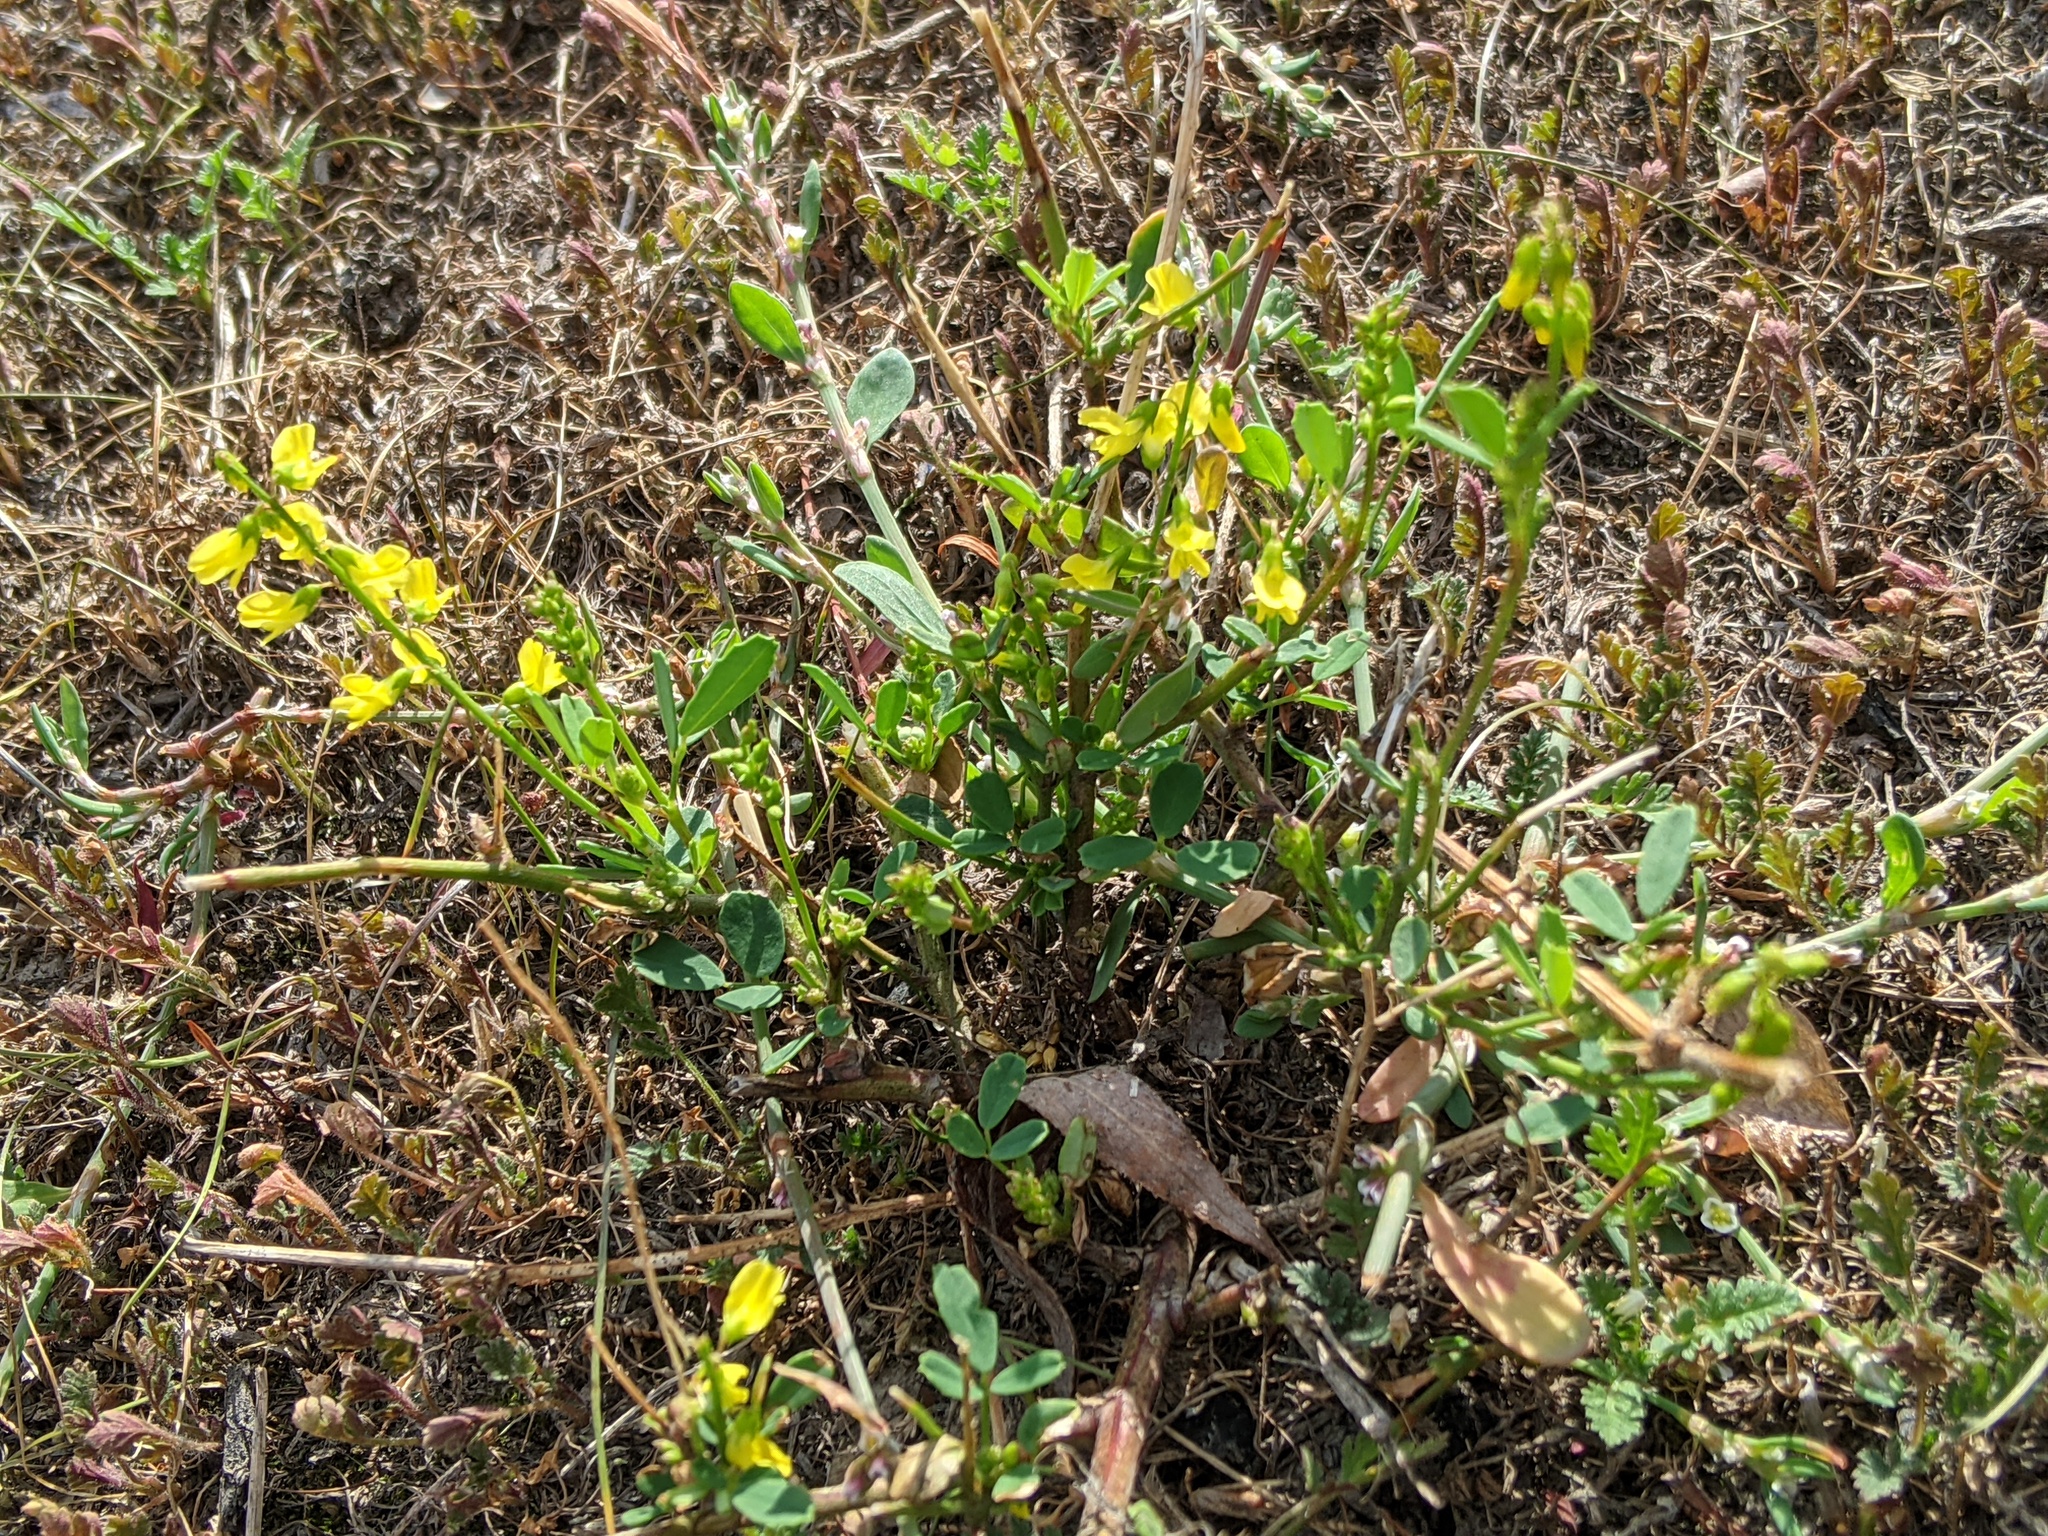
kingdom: Plantae
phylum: Tracheophyta
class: Magnoliopsida
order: Fabales
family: Fabaceae
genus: Melilotus
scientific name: Melilotus officinalis
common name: Sweetclover
